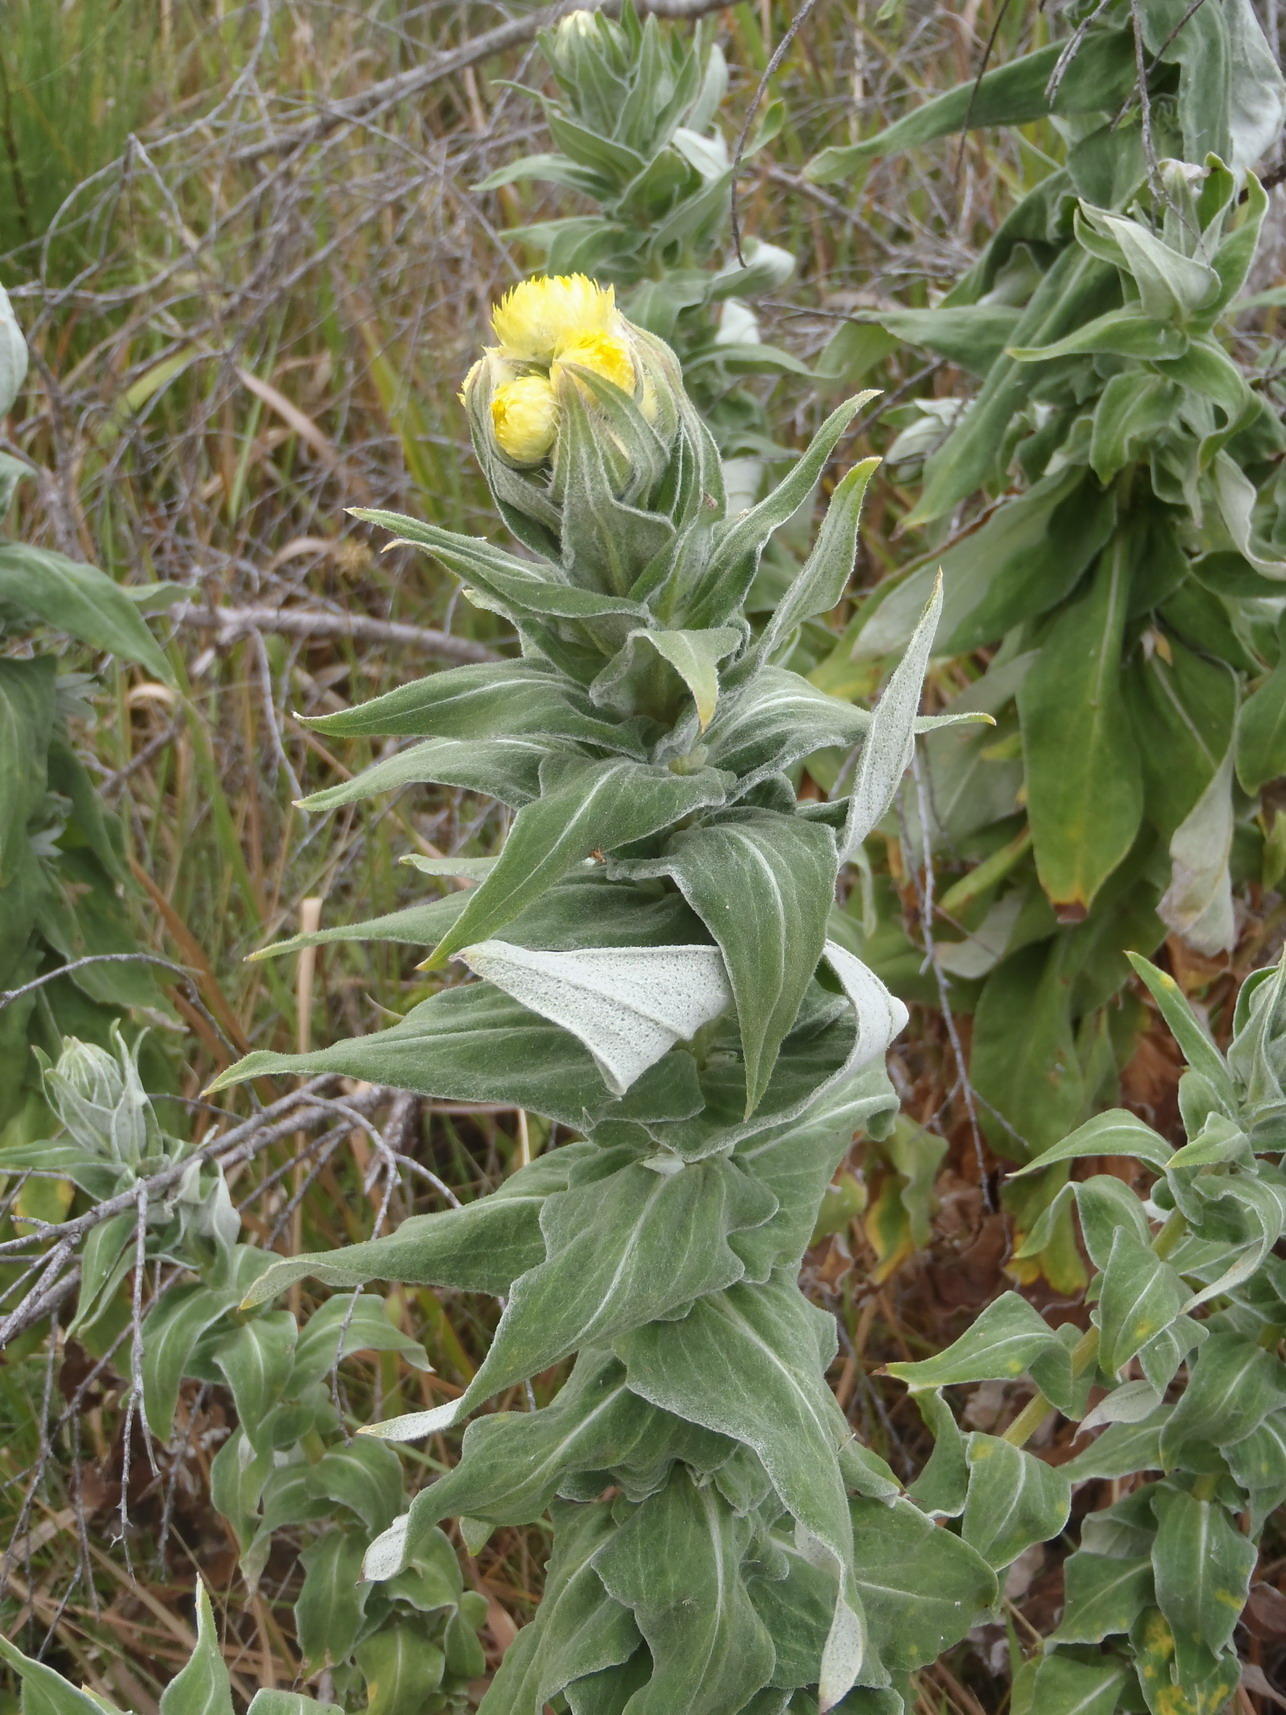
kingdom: Plantae
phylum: Tracheophyta
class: Magnoliopsida
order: Asterales
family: Asteraceae
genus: Helichrysum
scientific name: Helichrysum foetidum
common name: Stinking everlasting
